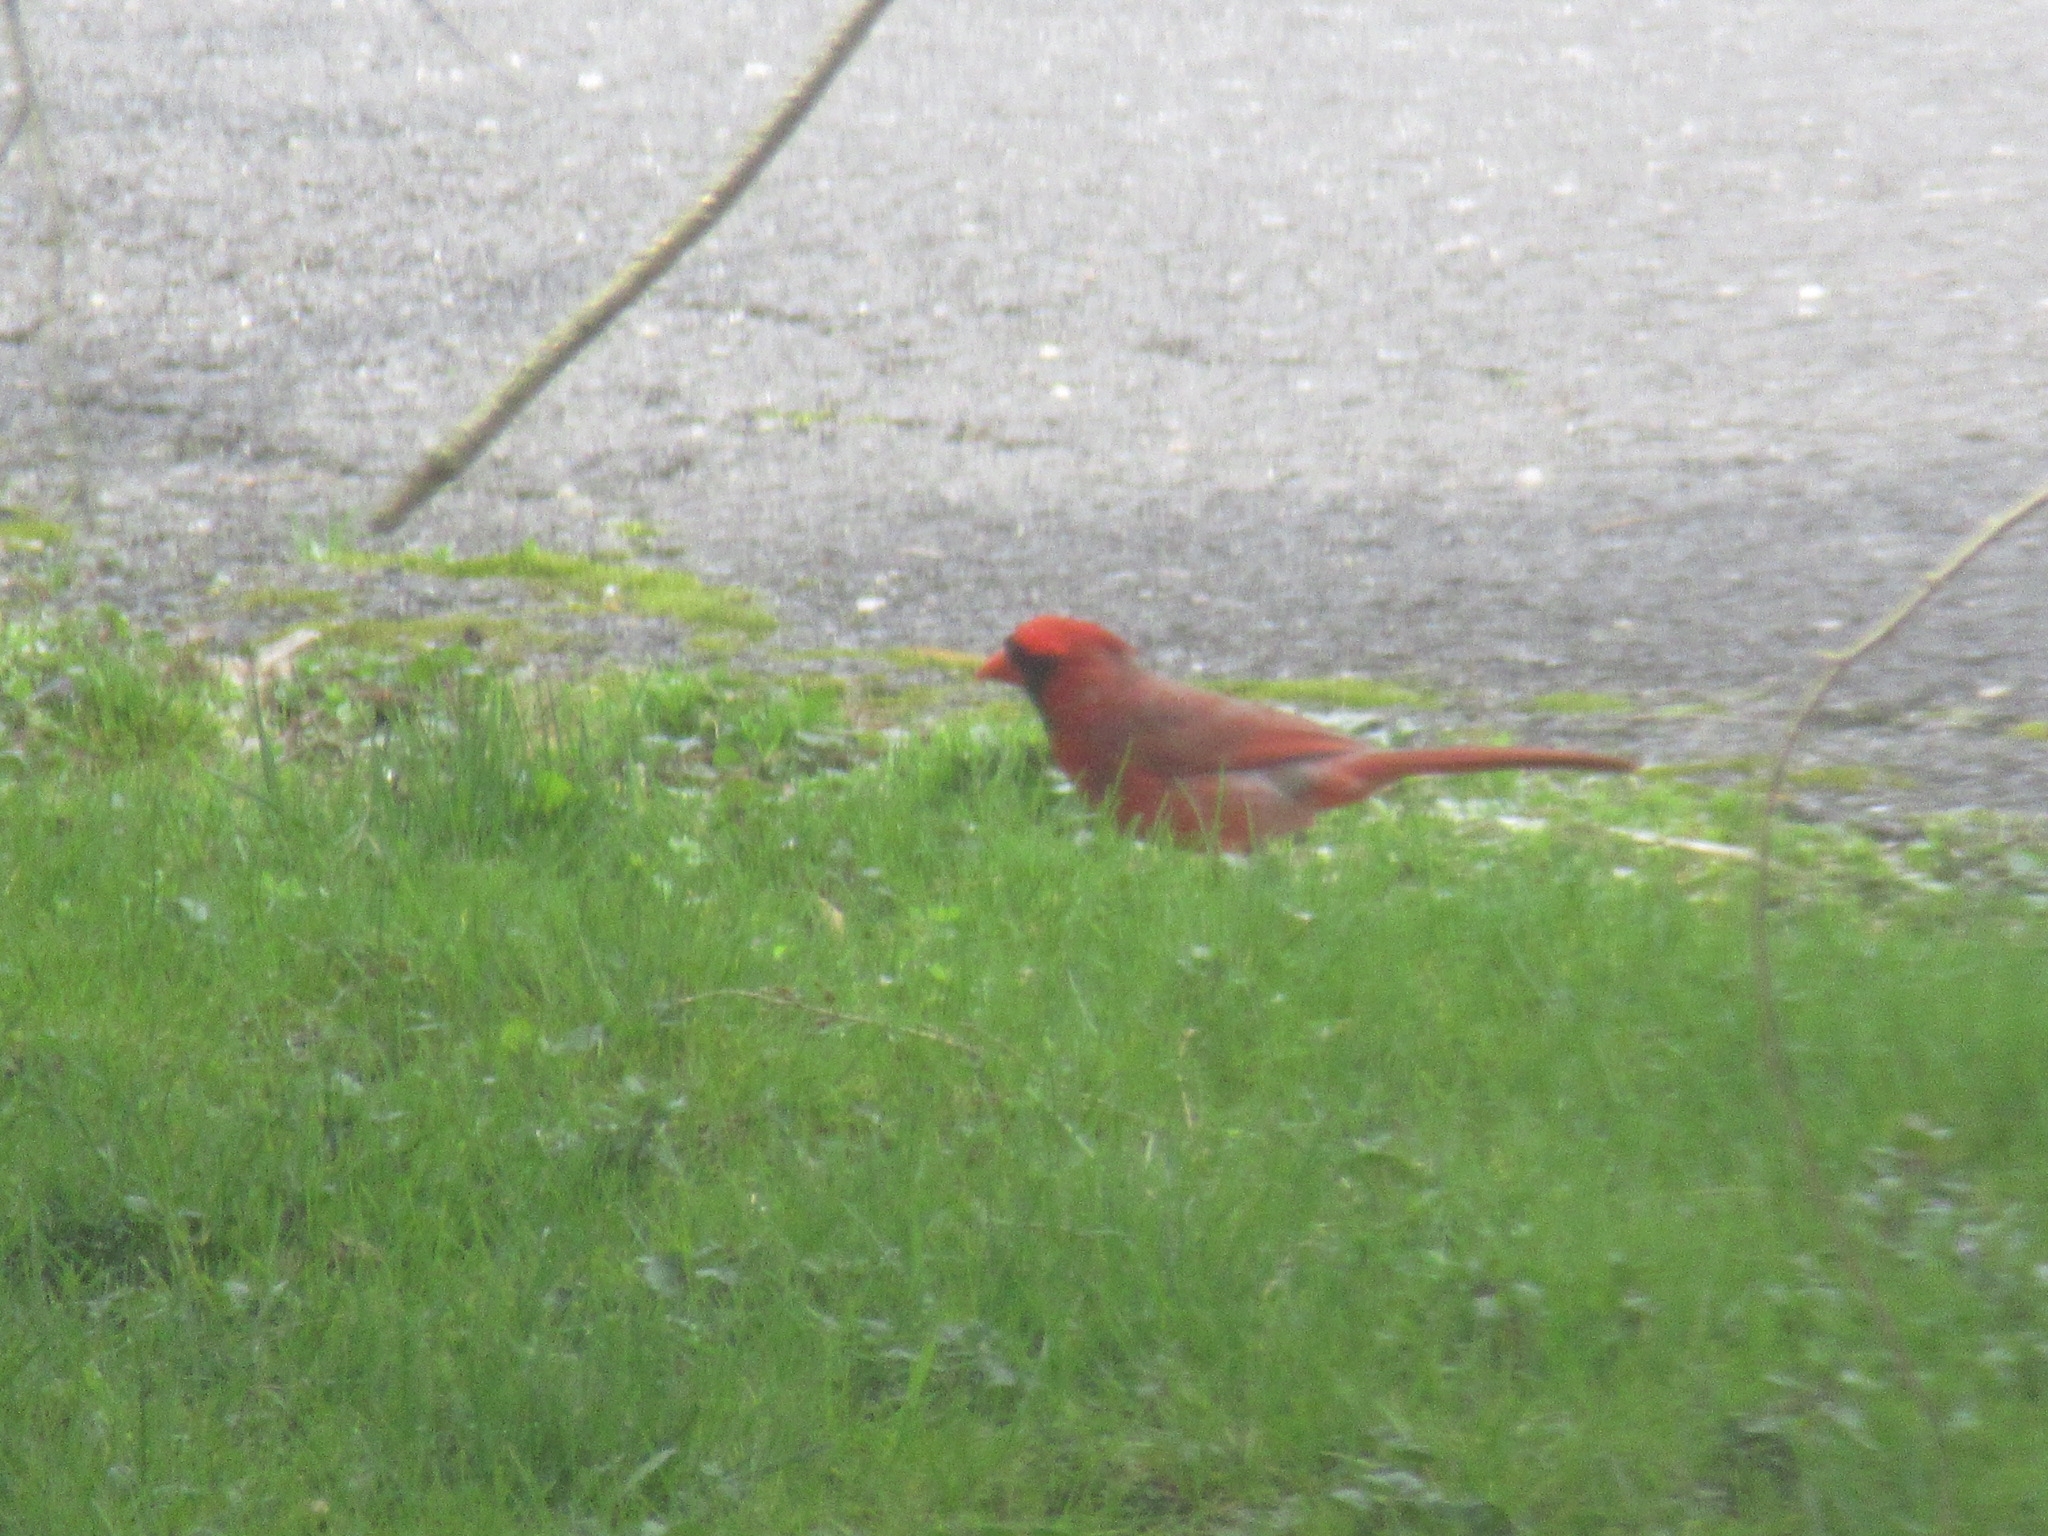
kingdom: Animalia
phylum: Chordata
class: Aves
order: Passeriformes
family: Cardinalidae
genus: Cardinalis
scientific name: Cardinalis cardinalis
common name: Northern cardinal
